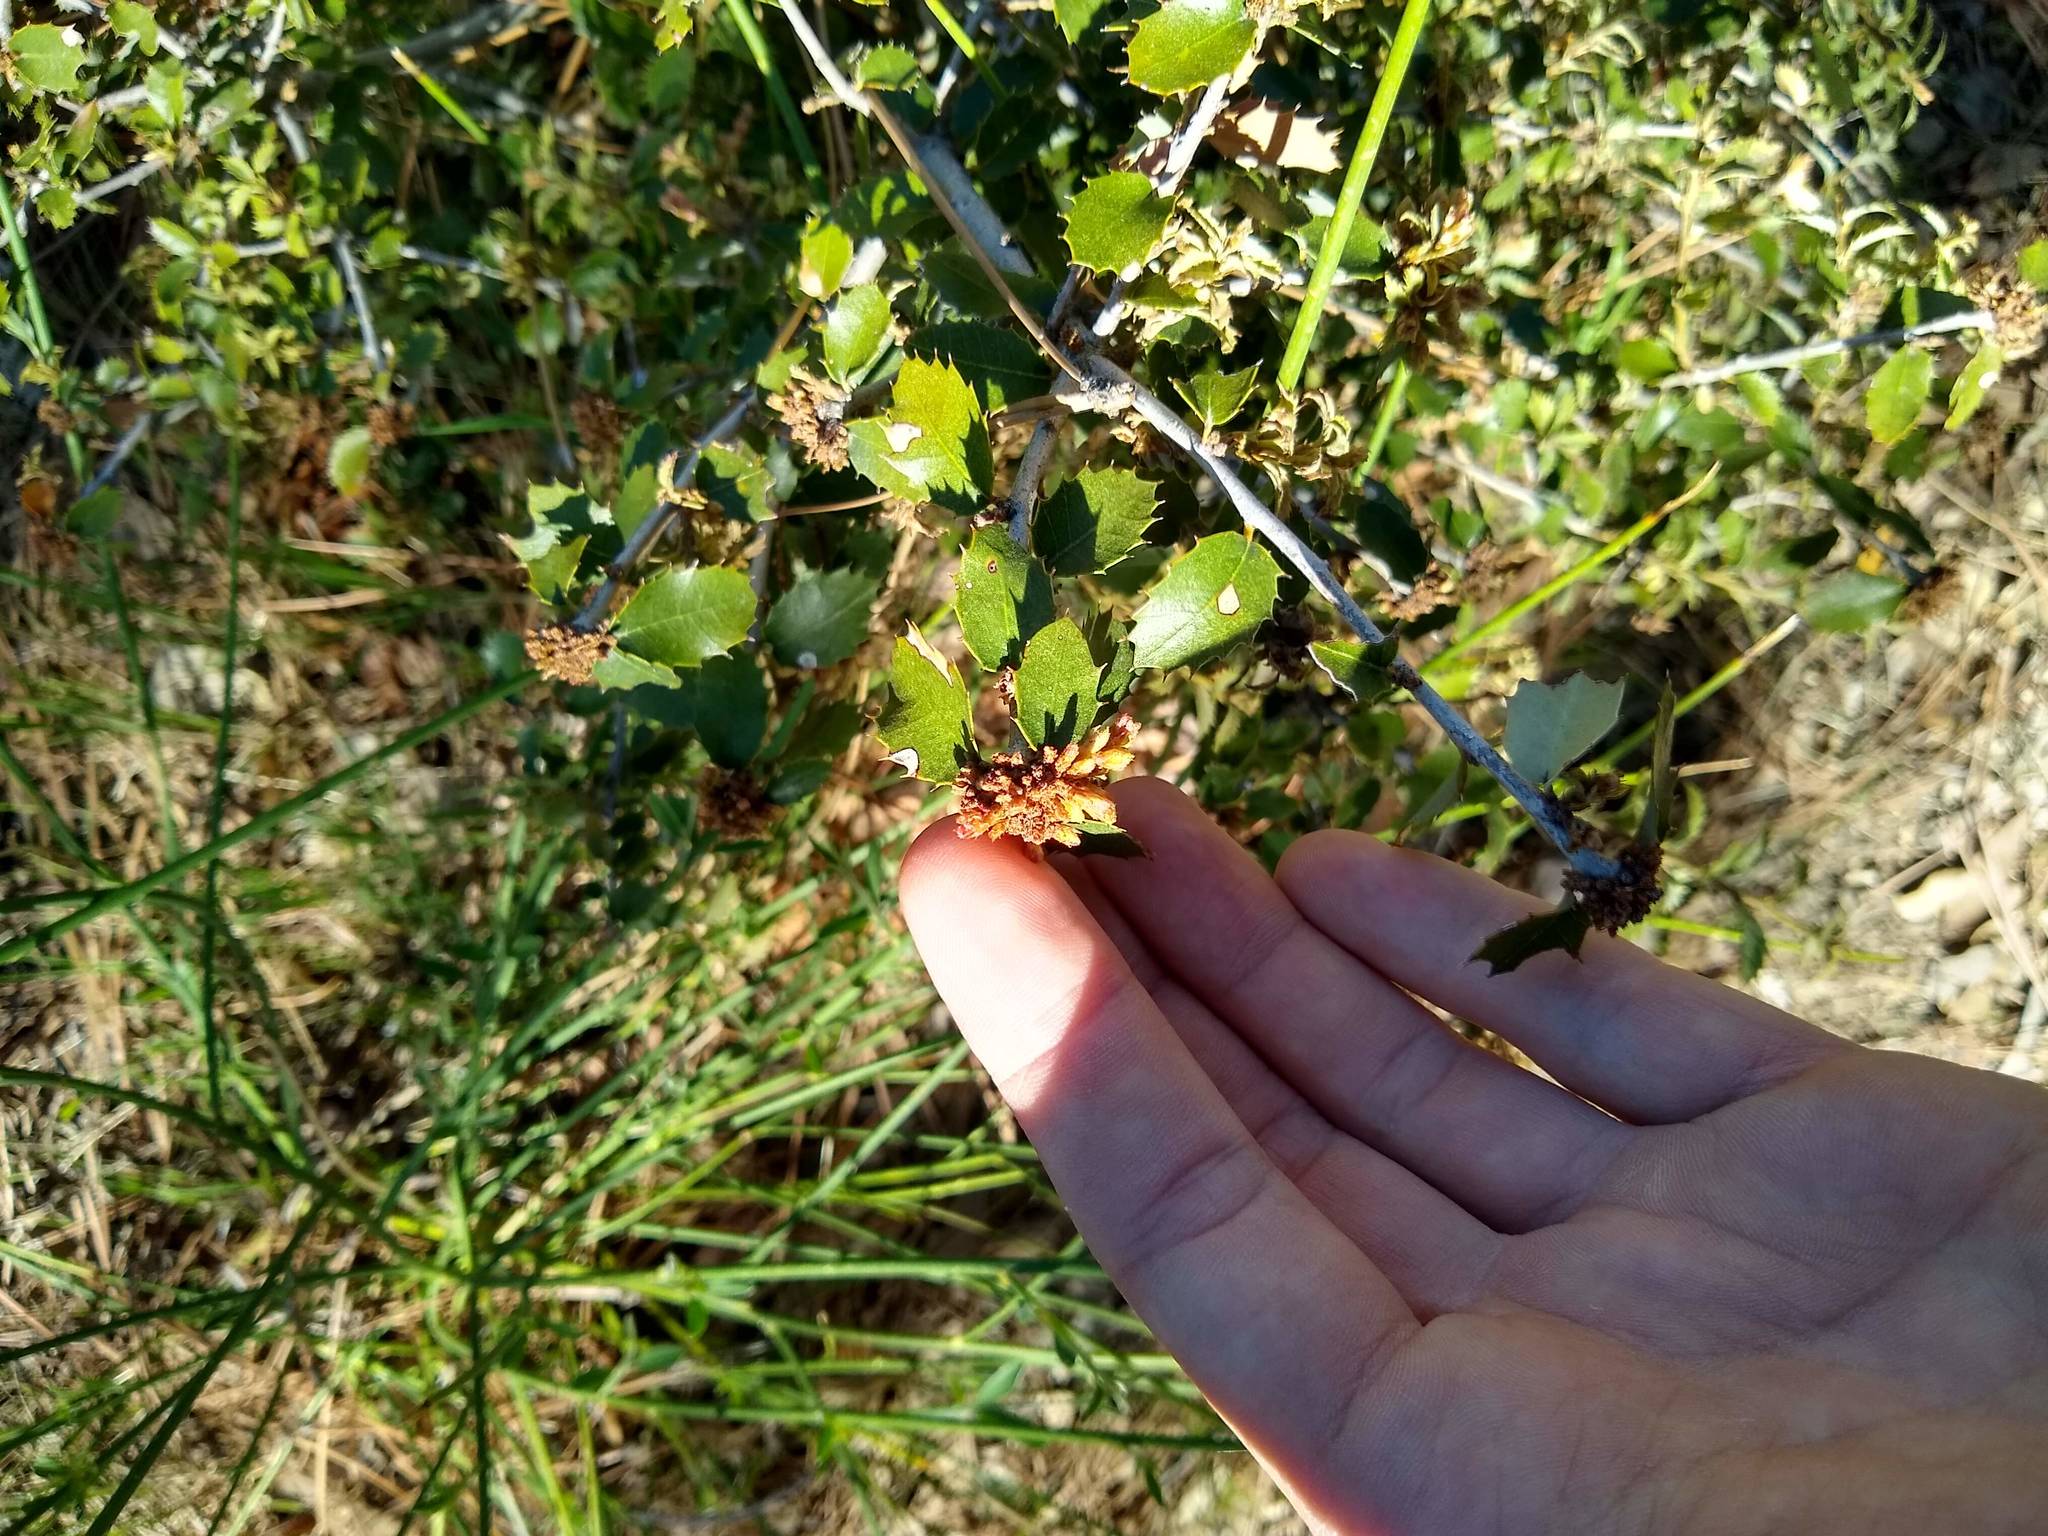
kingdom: Plantae
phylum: Tracheophyta
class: Magnoliopsida
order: Fagales
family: Fagaceae
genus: Quercus
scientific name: Quercus berberidifolia
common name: California scrub oak
